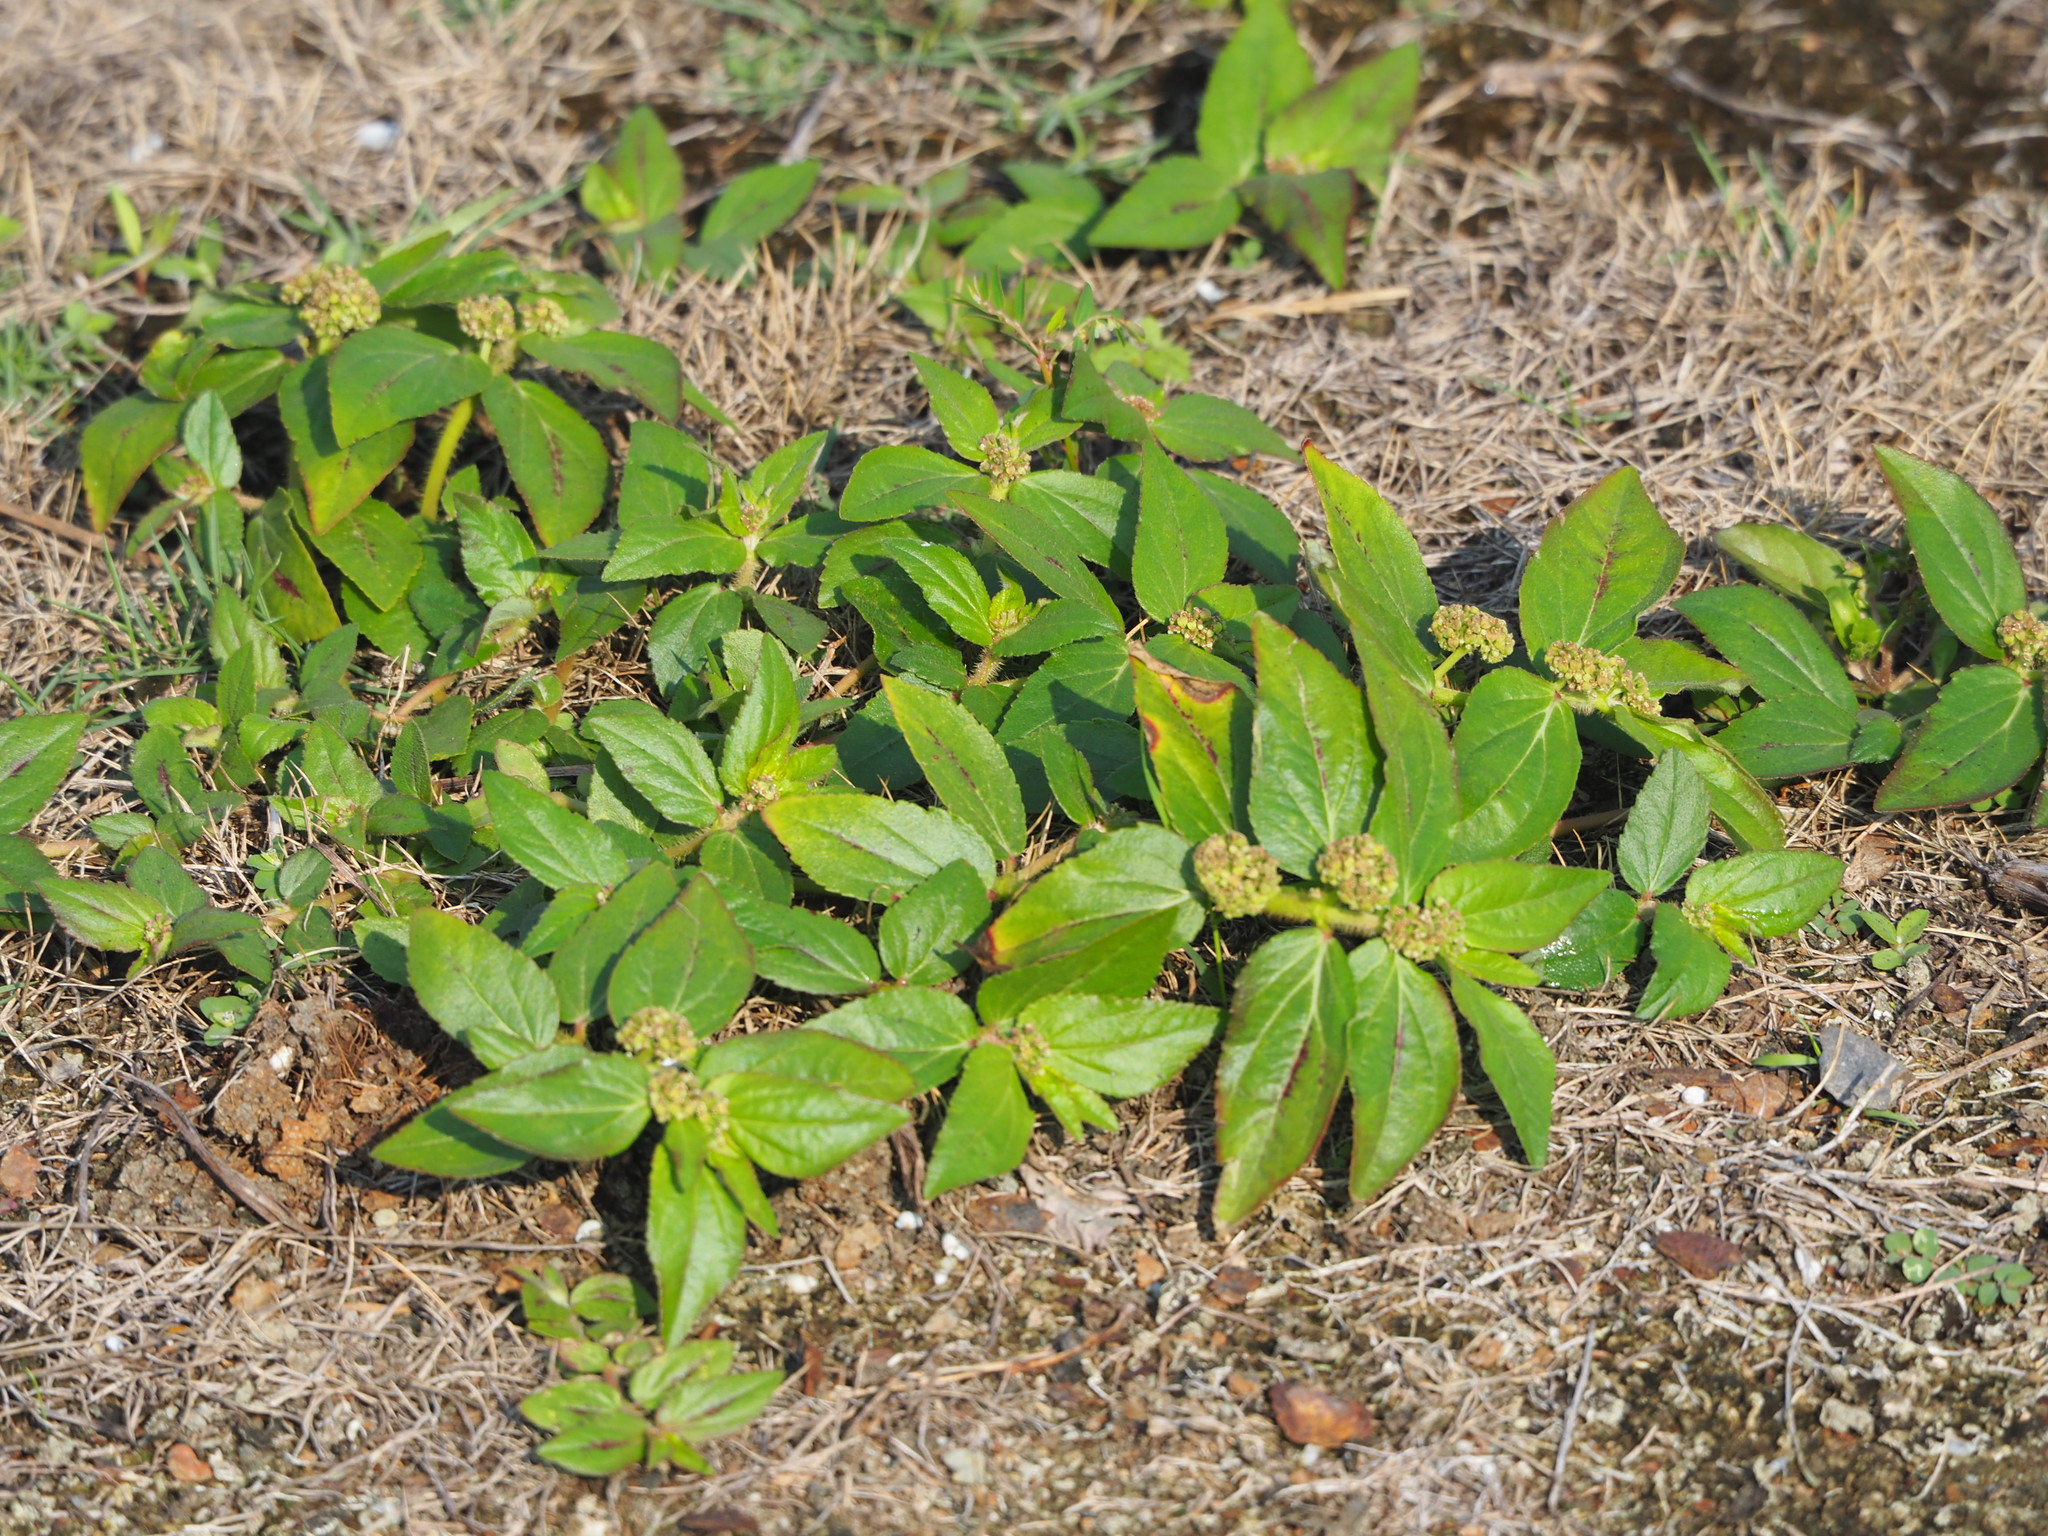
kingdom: Plantae
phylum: Tracheophyta
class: Magnoliopsida
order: Malpighiales
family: Euphorbiaceae
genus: Euphorbia
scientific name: Euphorbia hirta
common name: Pillpod sandmat
